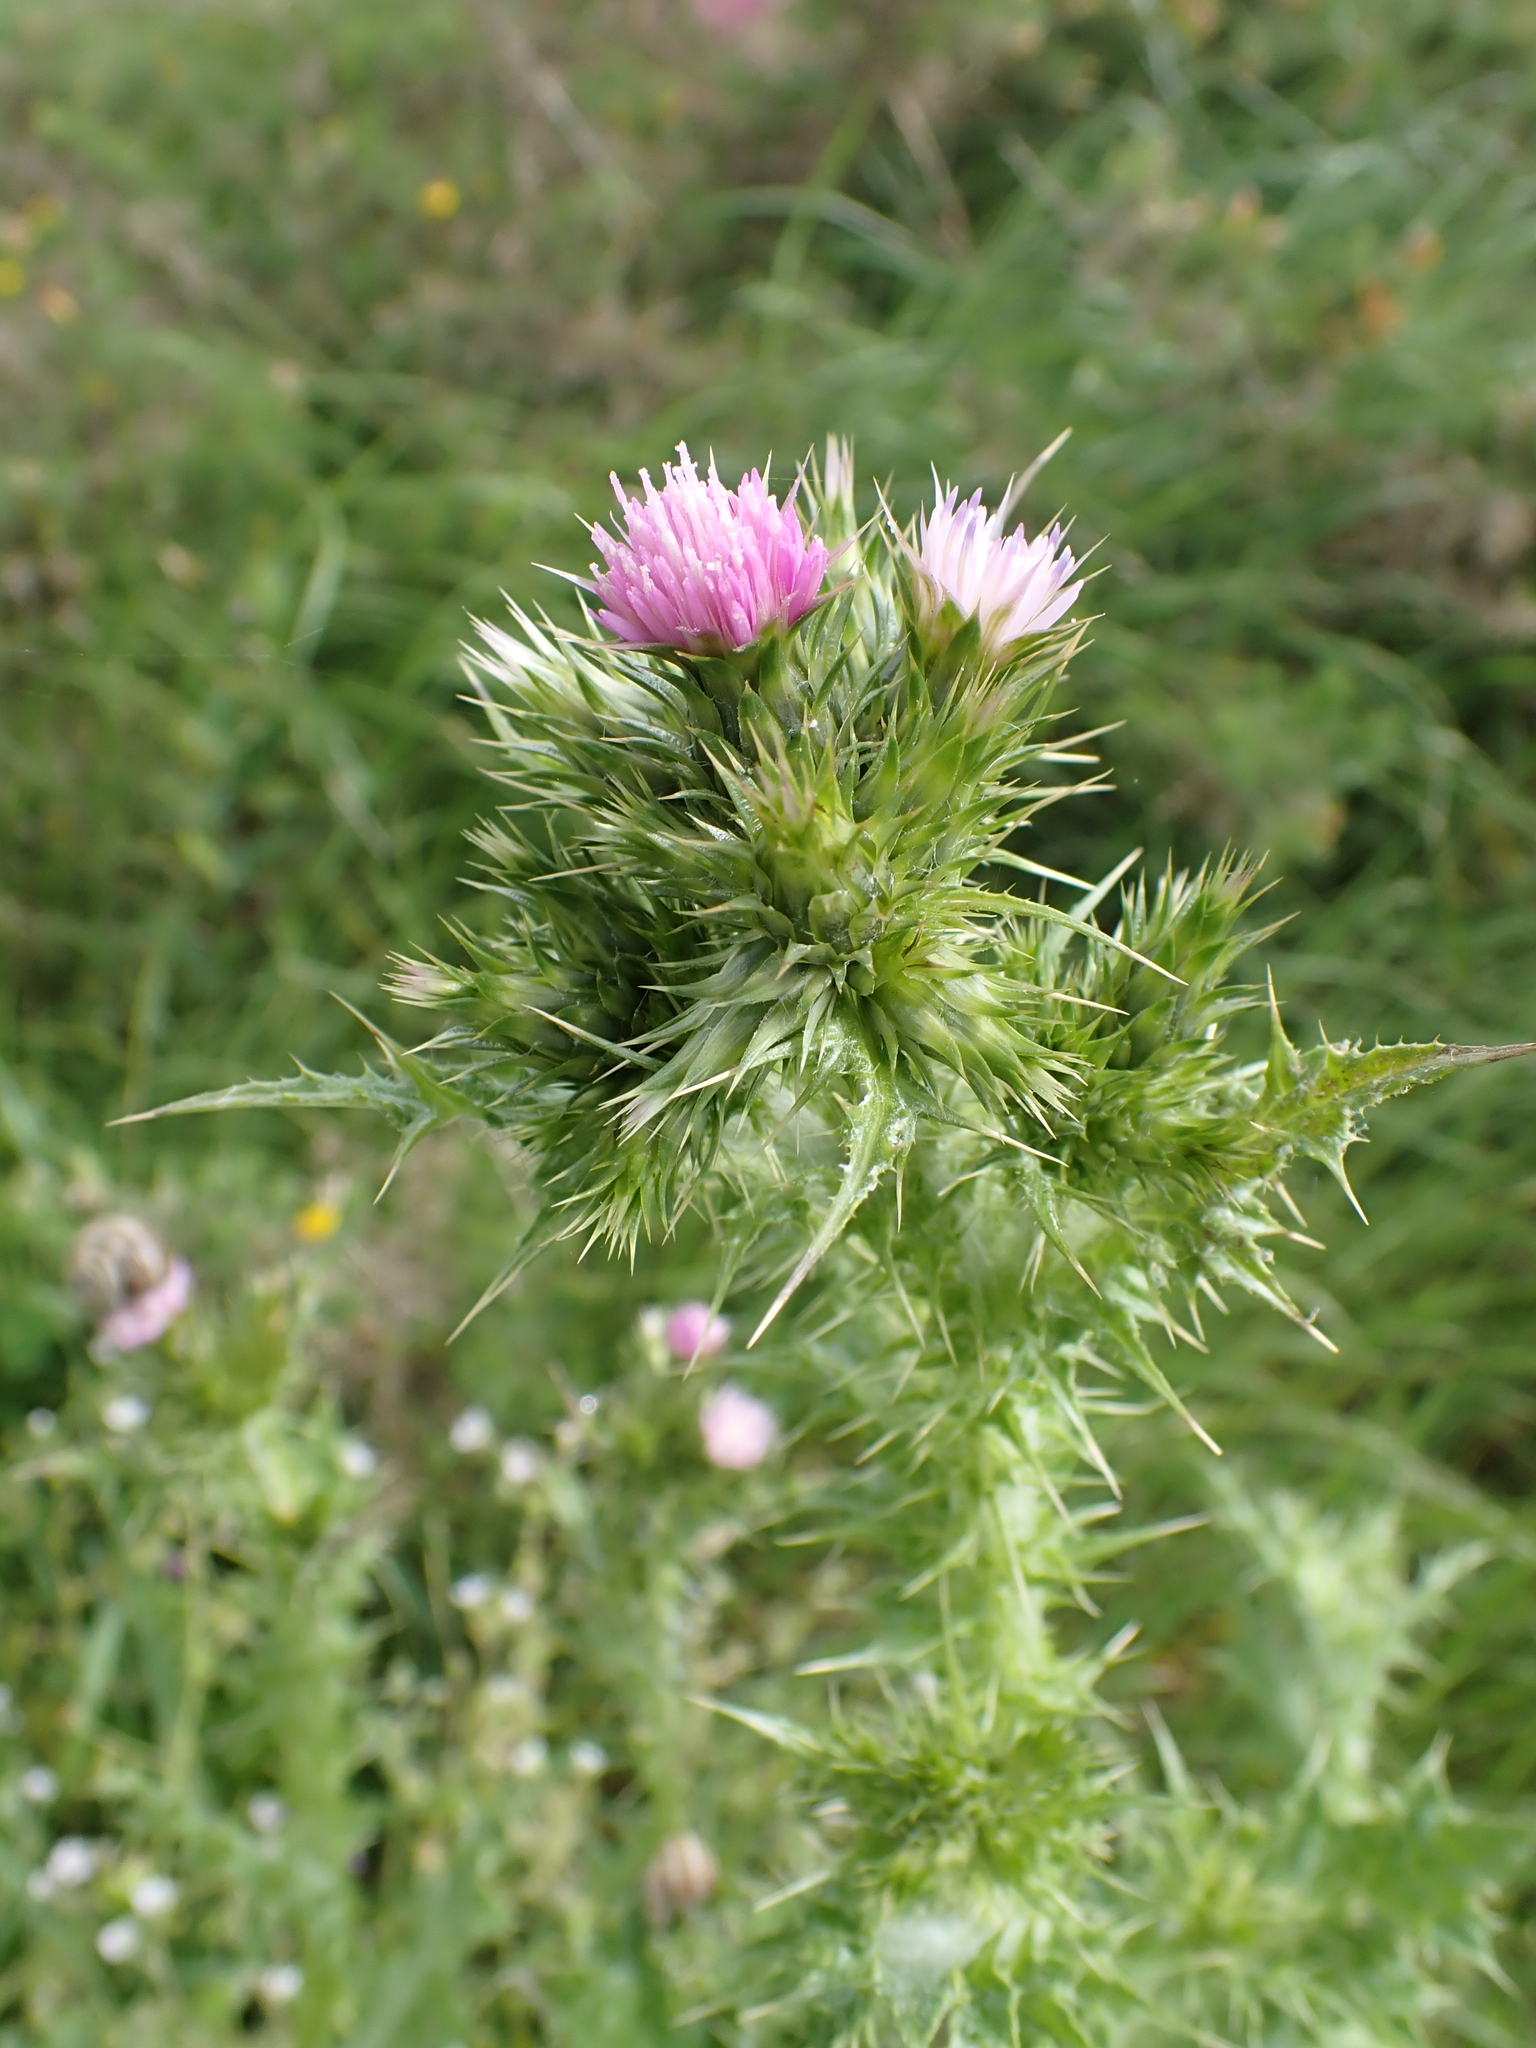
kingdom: Plantae
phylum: Tracheophyta
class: Magnoliopsida
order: Asterales
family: Asteraceae
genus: Carduus
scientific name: Carduus tenuiflorus
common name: Slender thistle
